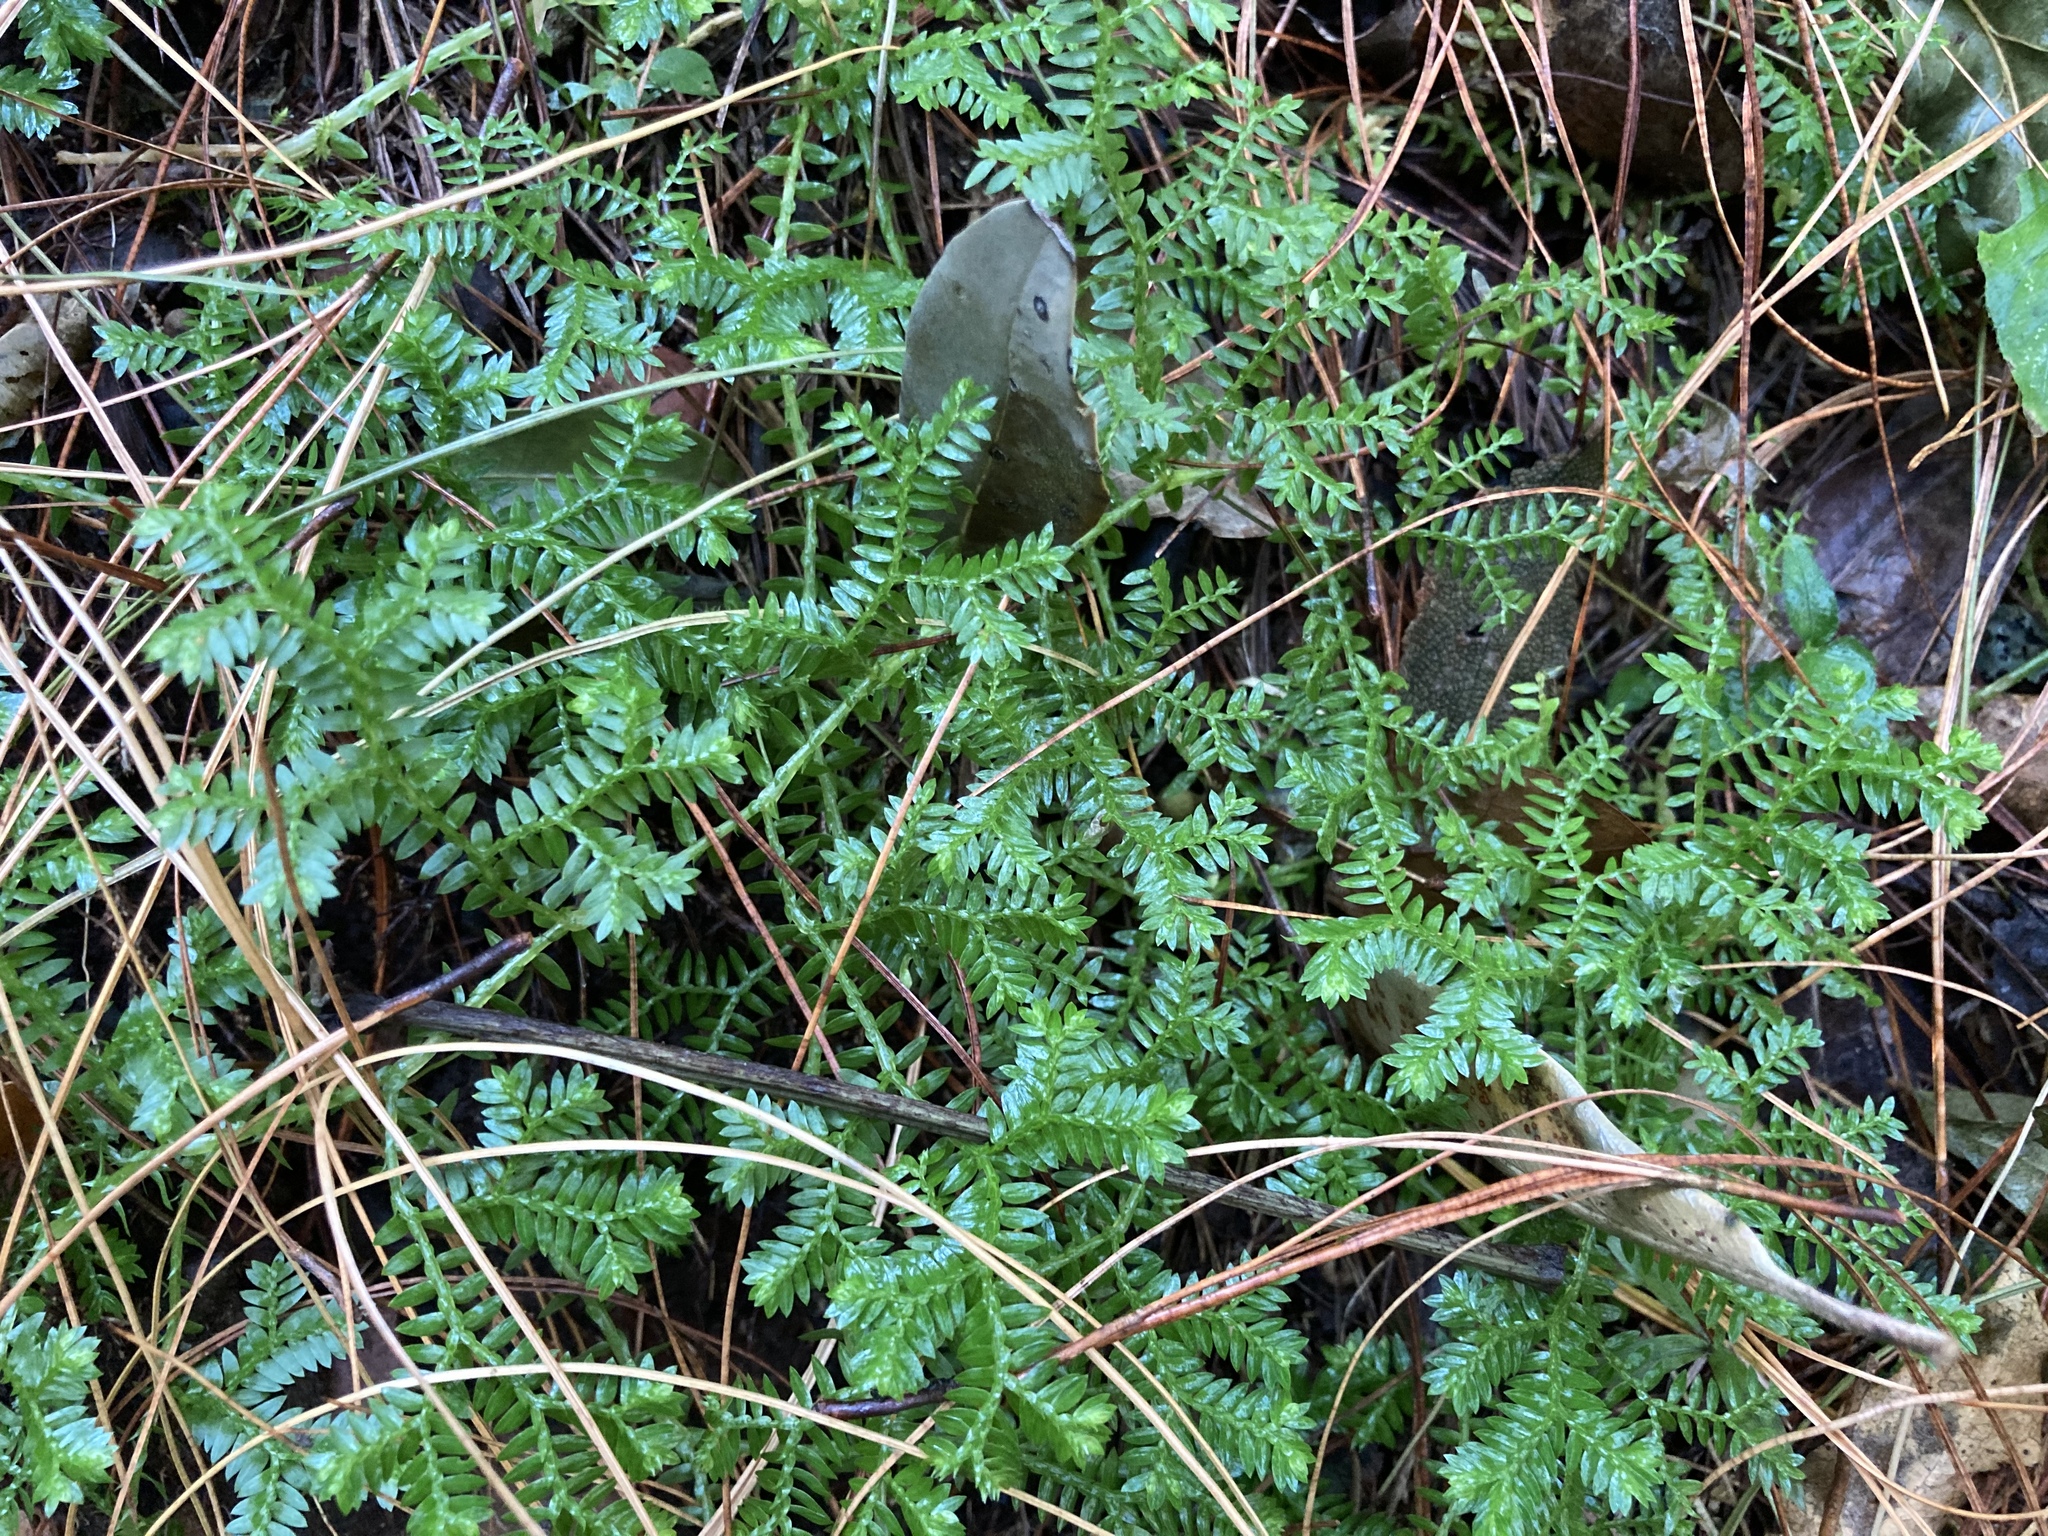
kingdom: Plantae
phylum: Tracheophyta
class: Lycopodiopsida
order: Selaginellales
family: Selaginellaceae
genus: Selaginella
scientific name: Selaginella kraussiana
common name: Krauss' spikemoss
